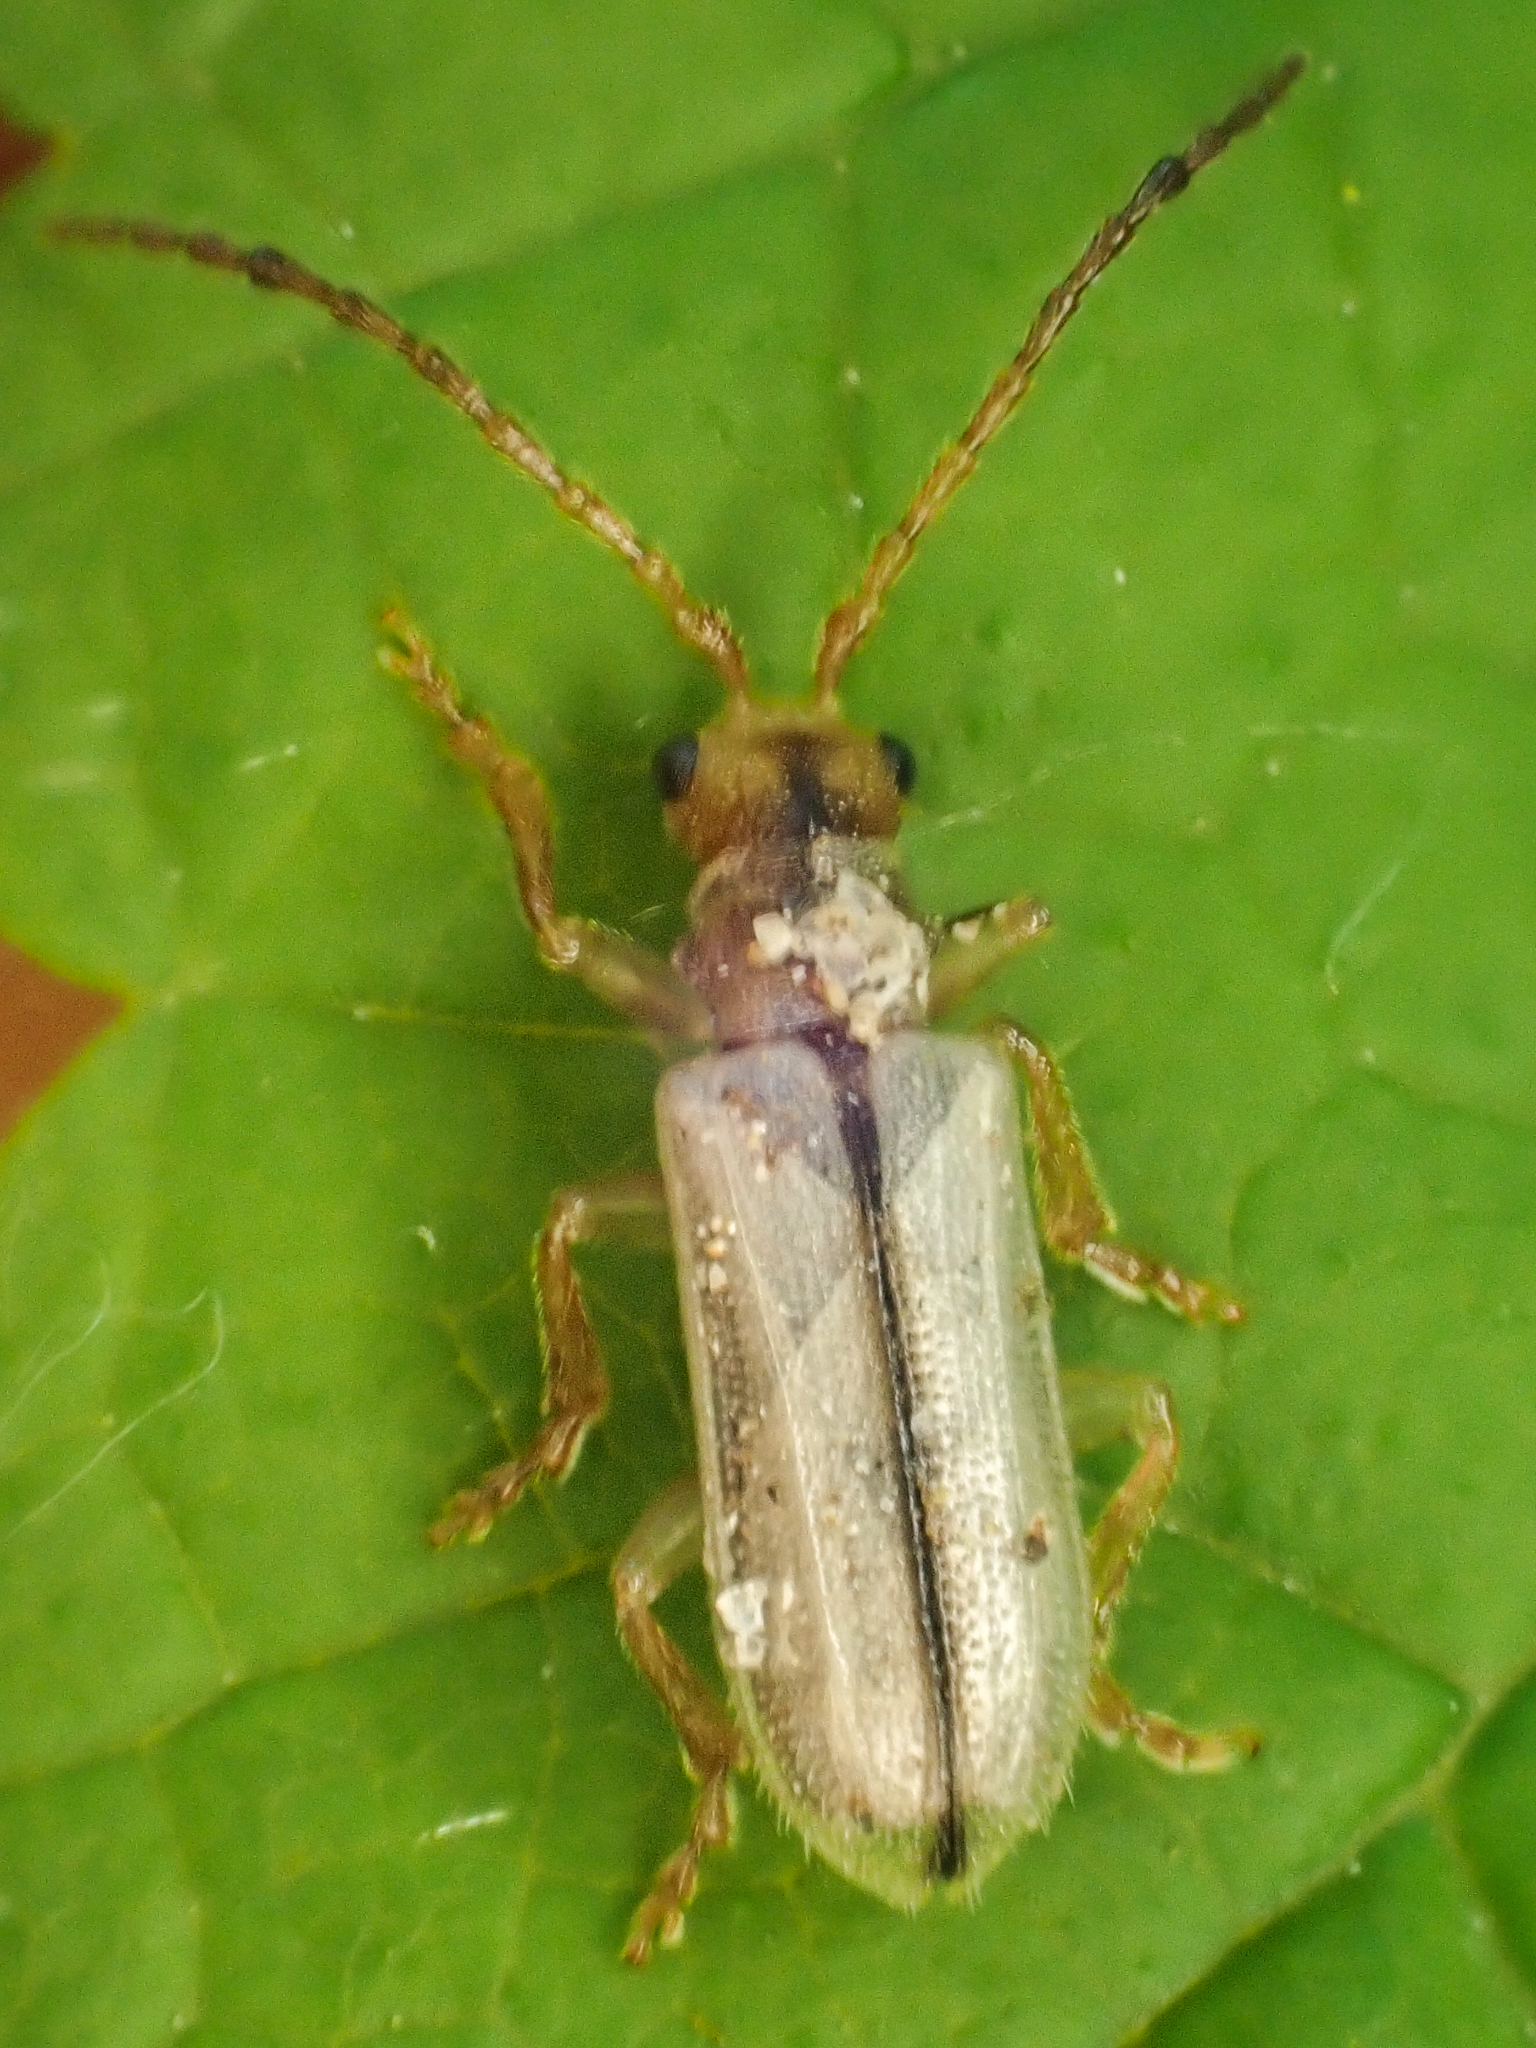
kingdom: Animalia
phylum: Arthropoda
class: Insecta
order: Coleoptera
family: Chrysomelidae
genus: Syneta
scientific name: Syneta albida
